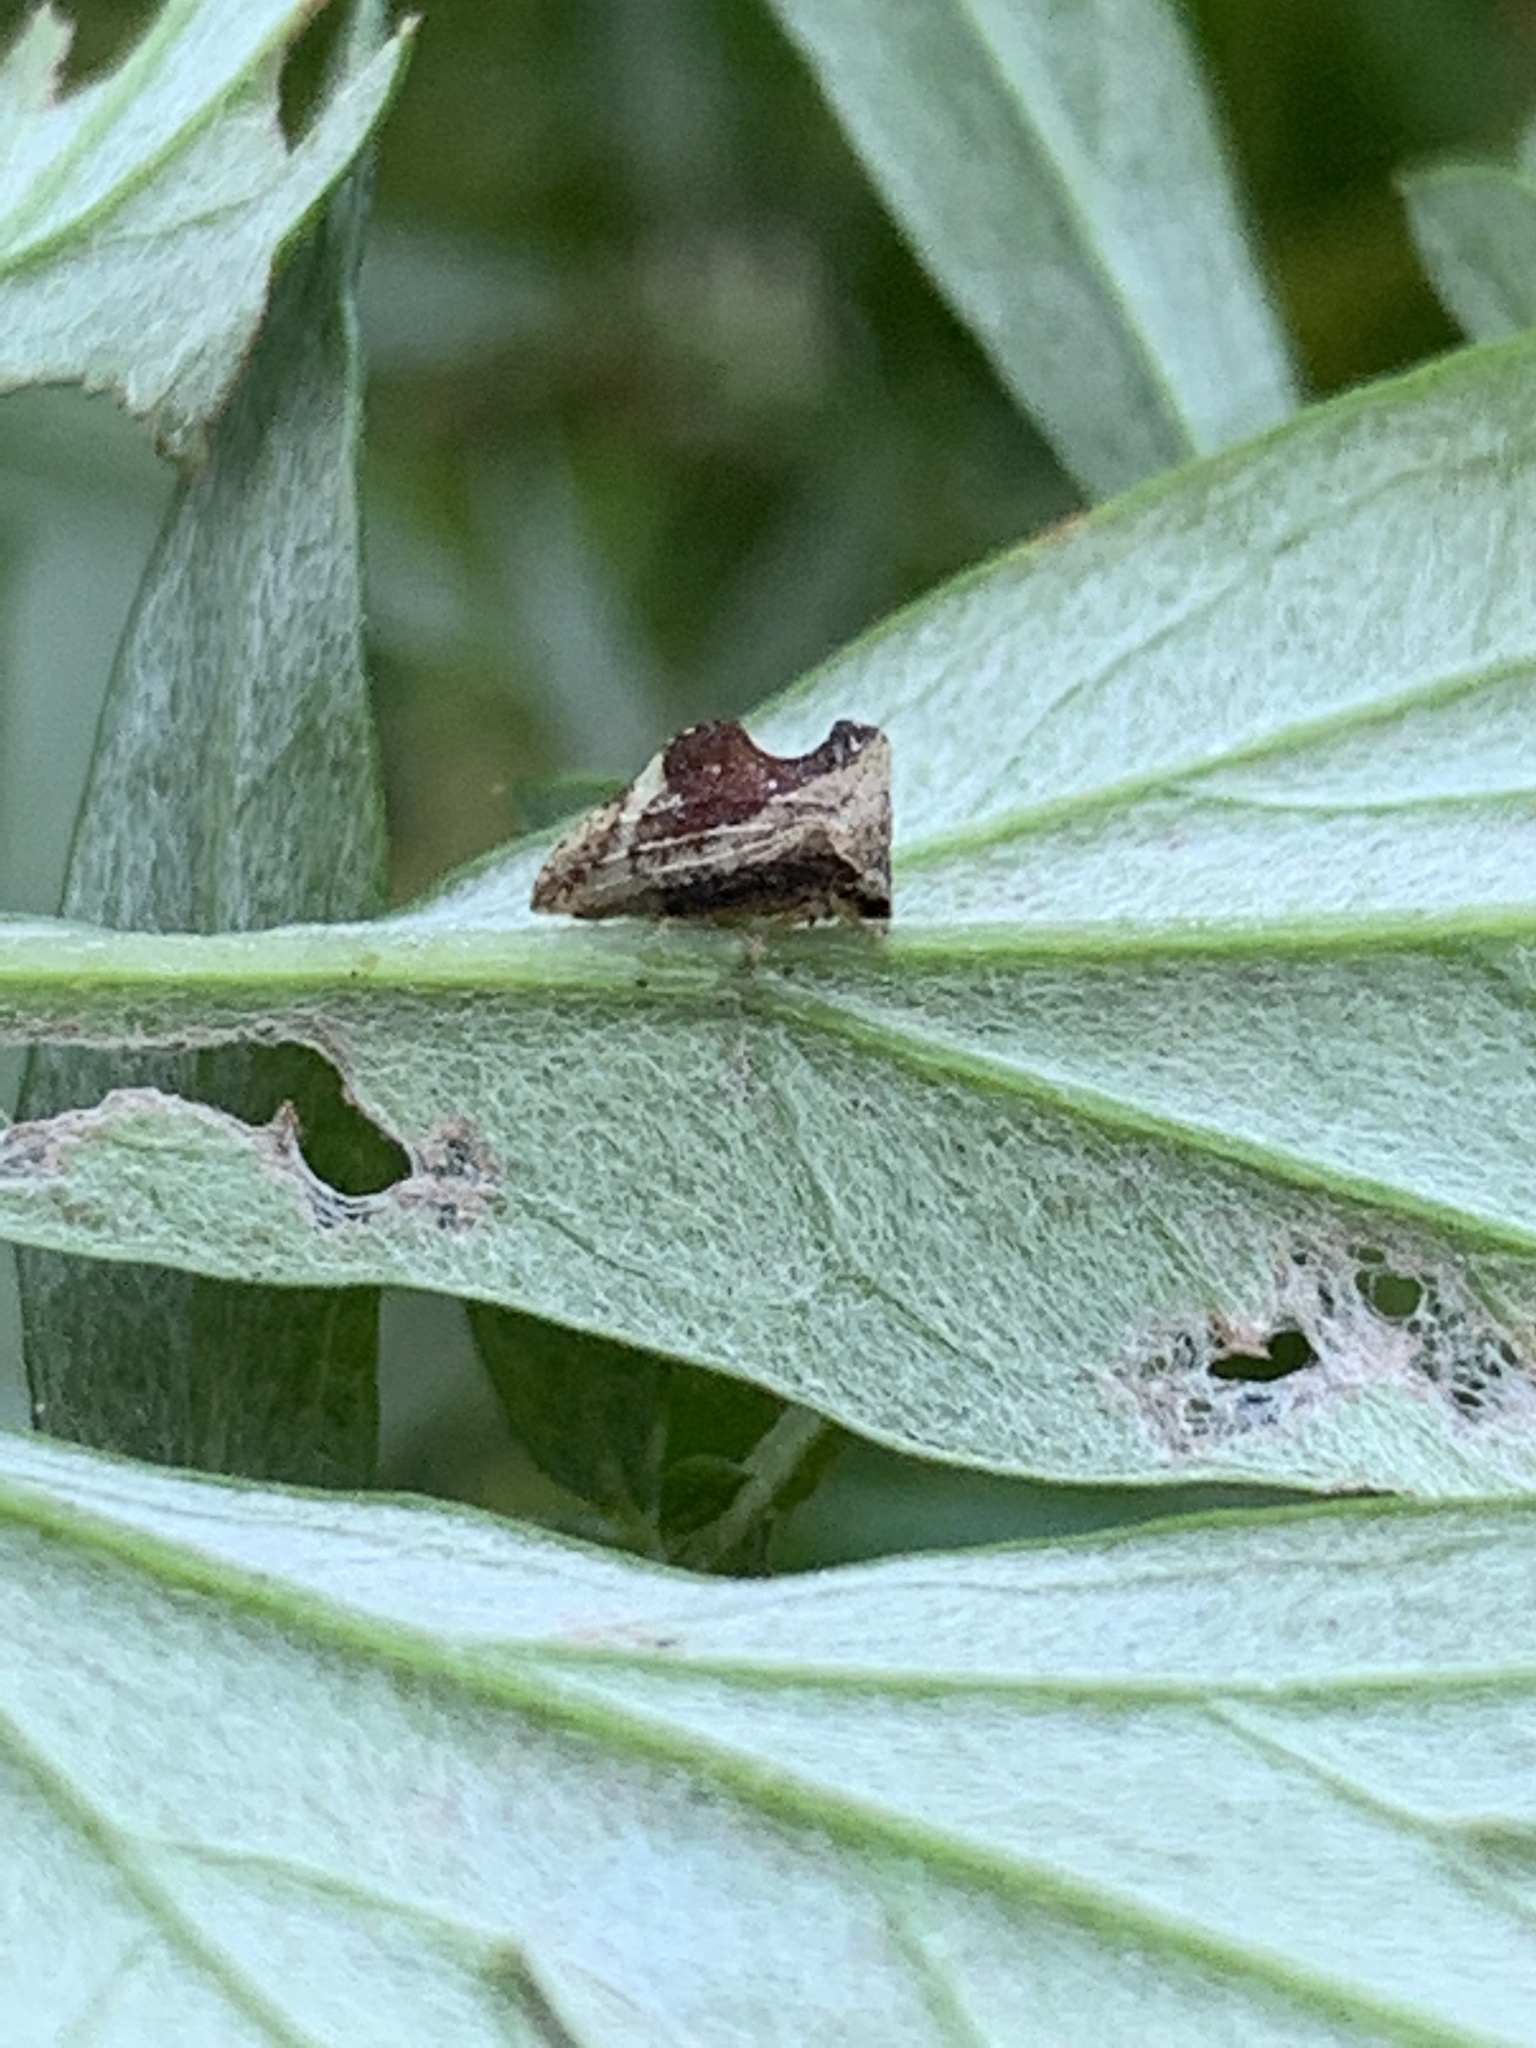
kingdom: Animalia
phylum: Arthropoda
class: Insecta
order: Hemiptera
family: Membracidae
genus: Entylia
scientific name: Entylia carinata
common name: Keeled treehopper
